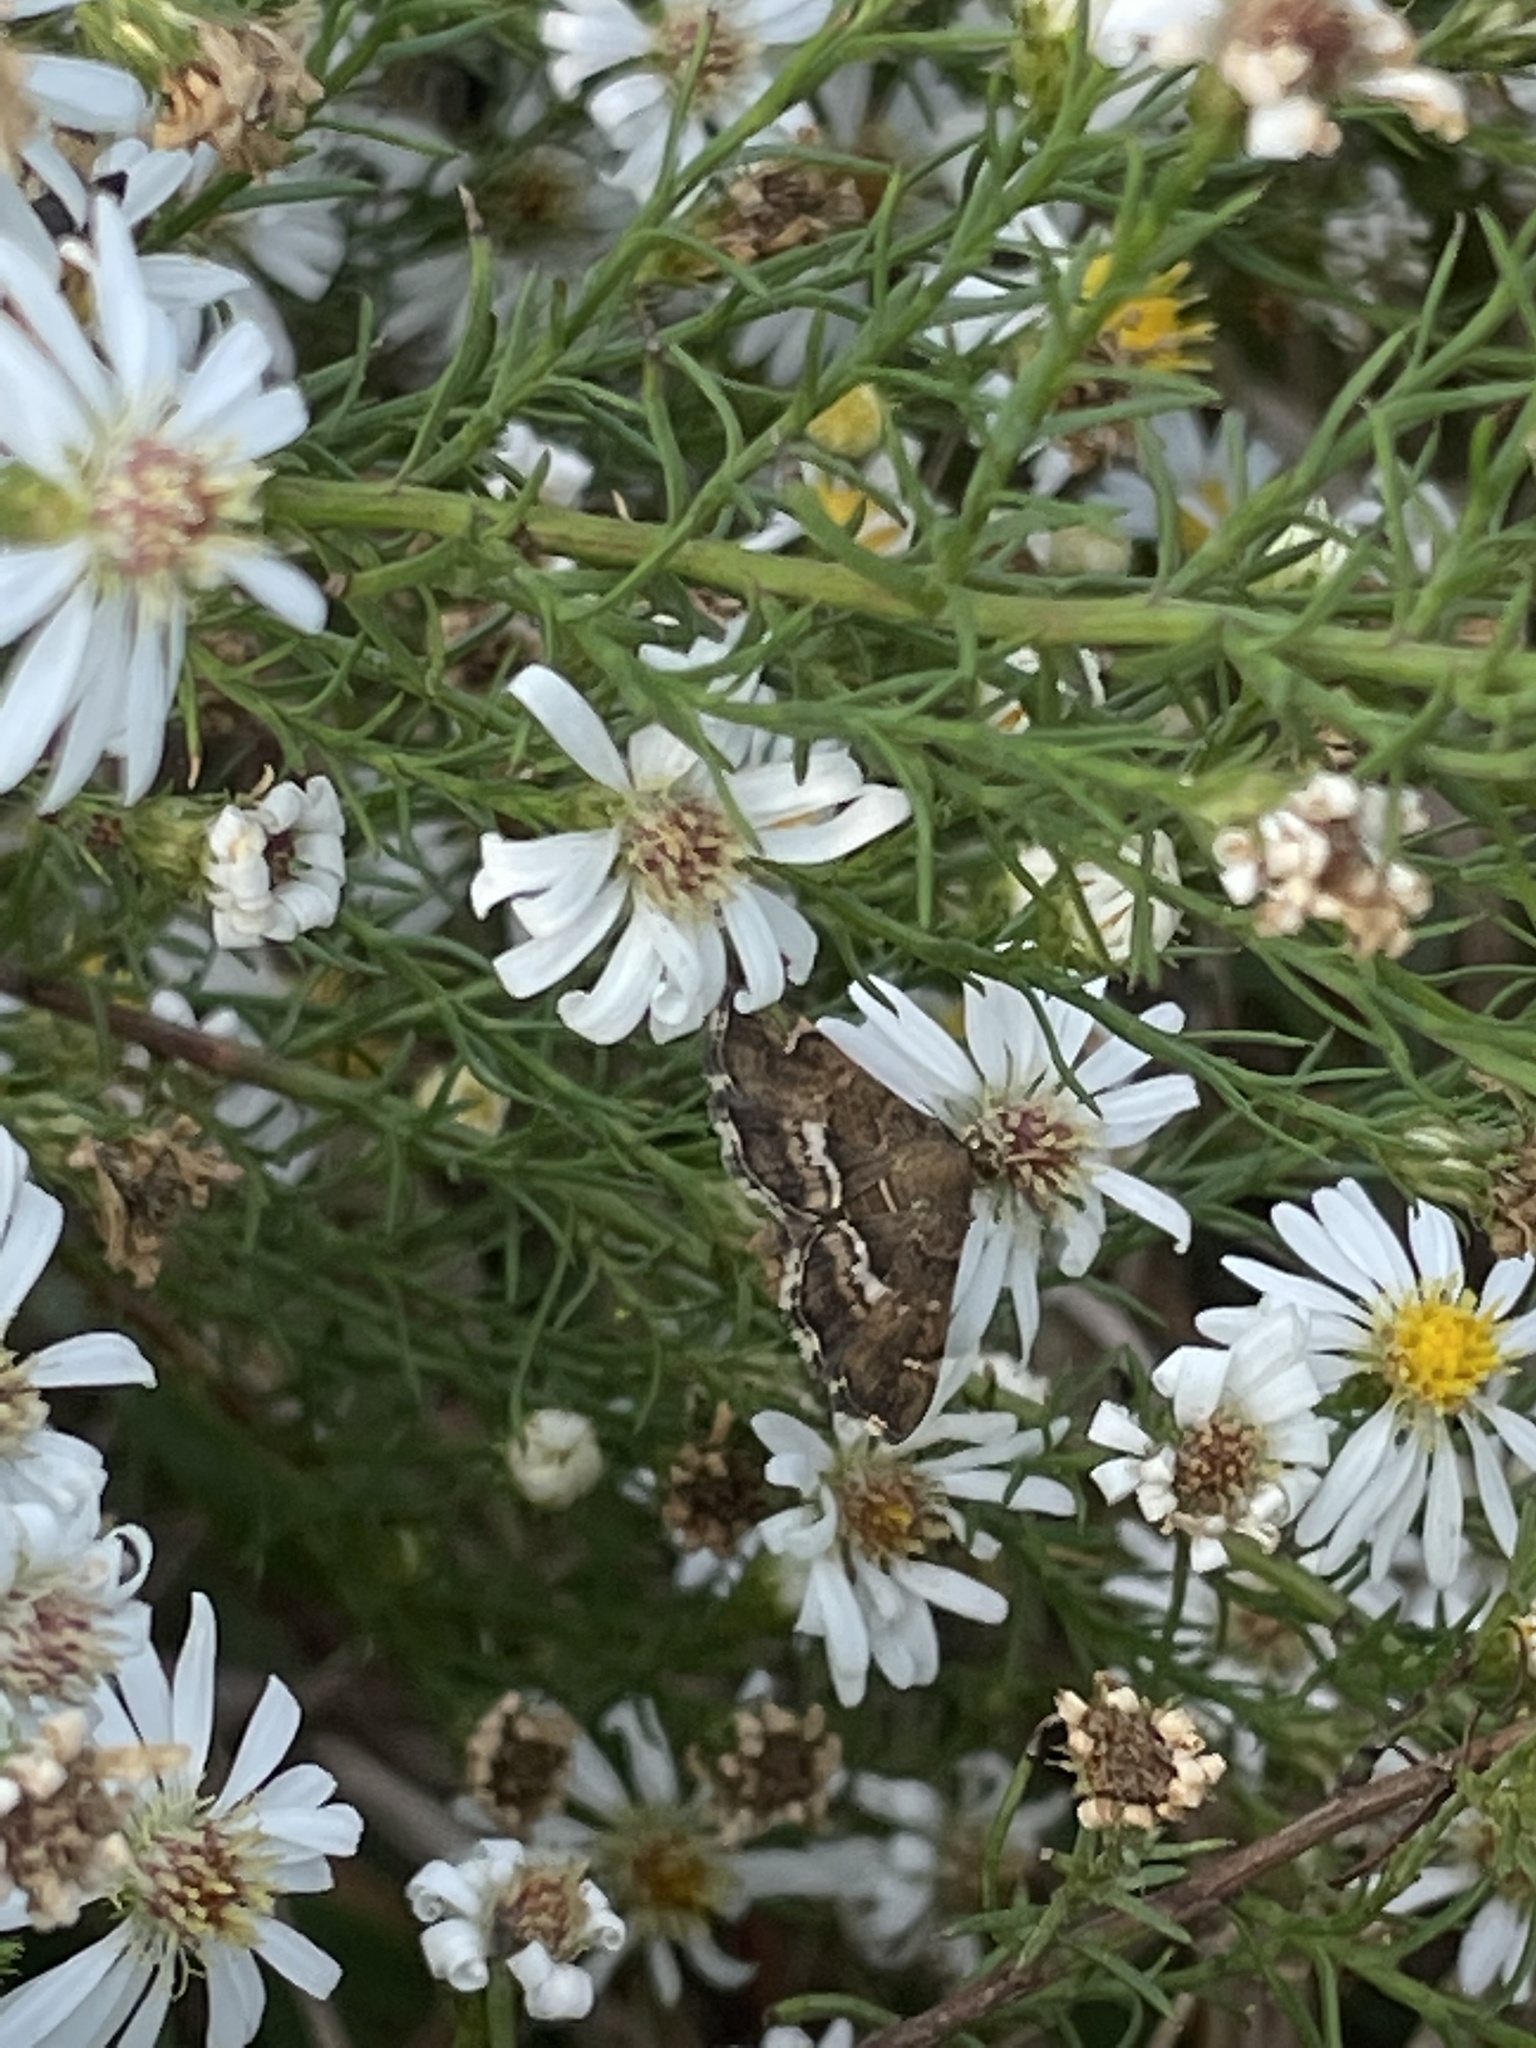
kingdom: Animalia
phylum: Arthropoda
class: Insecta
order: Lepidoptera
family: Crambidae
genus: Hymenia
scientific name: Hymenia perspectalis
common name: Spotted beet webworm
